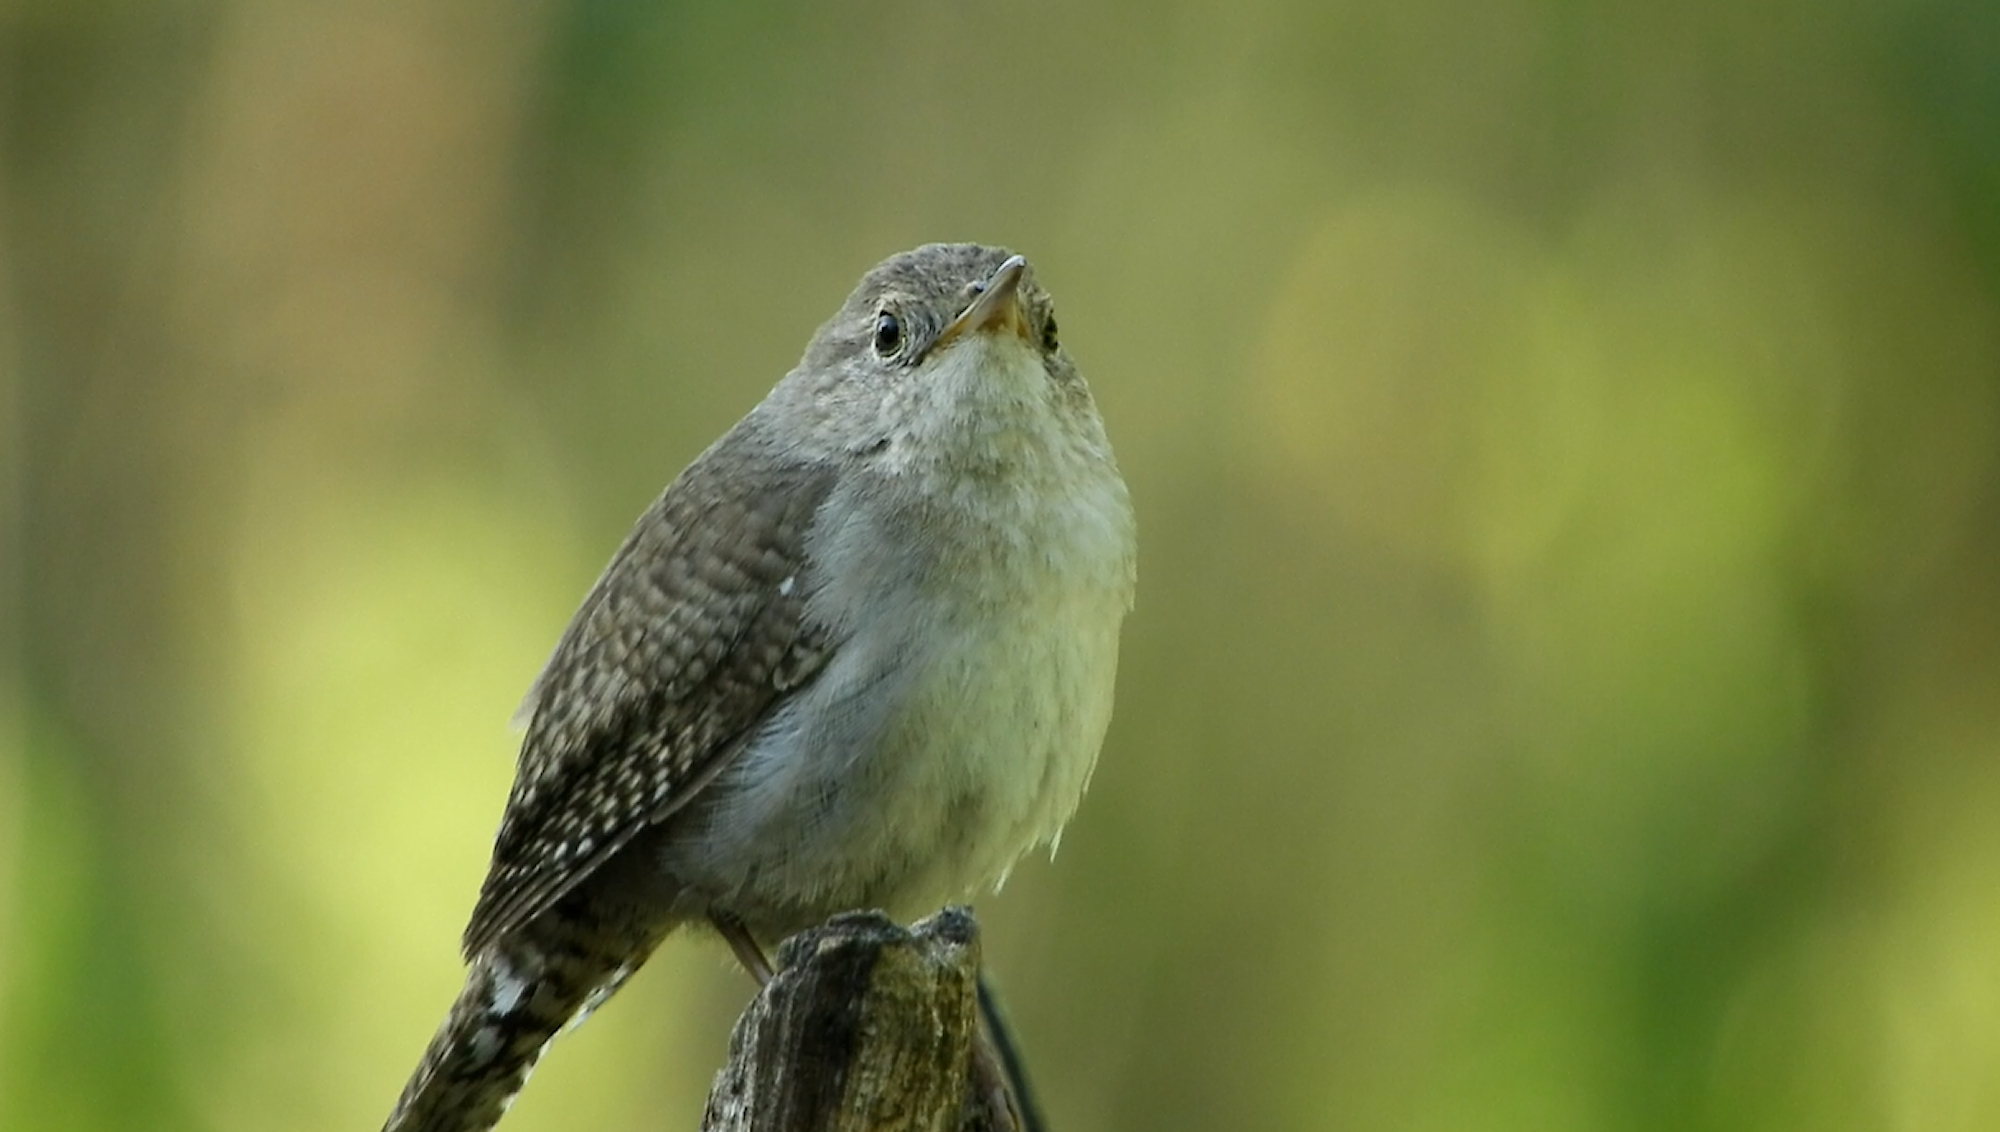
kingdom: Animalia
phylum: Chordata
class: Aves
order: Passeriformes
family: Troglodytidae
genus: Troglodytes
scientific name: Troglodytes aedon
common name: House wren
